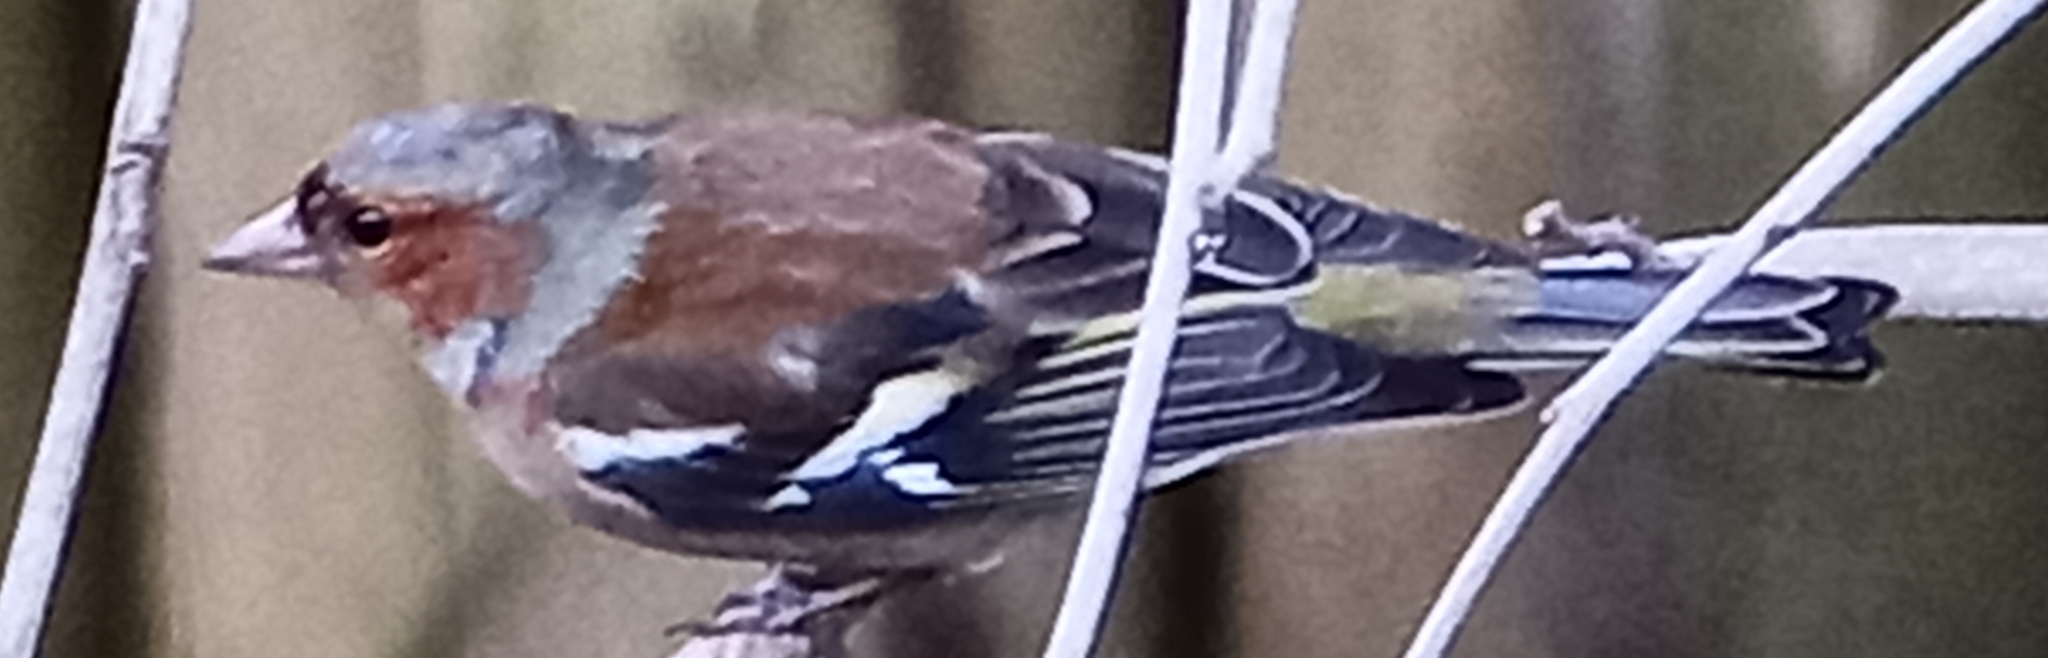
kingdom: Animalia
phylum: Chordata
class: Aves
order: Passeriformes
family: Fringillidae
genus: Fringilla
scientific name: Fringilla coelebs
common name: Common chaffinch
